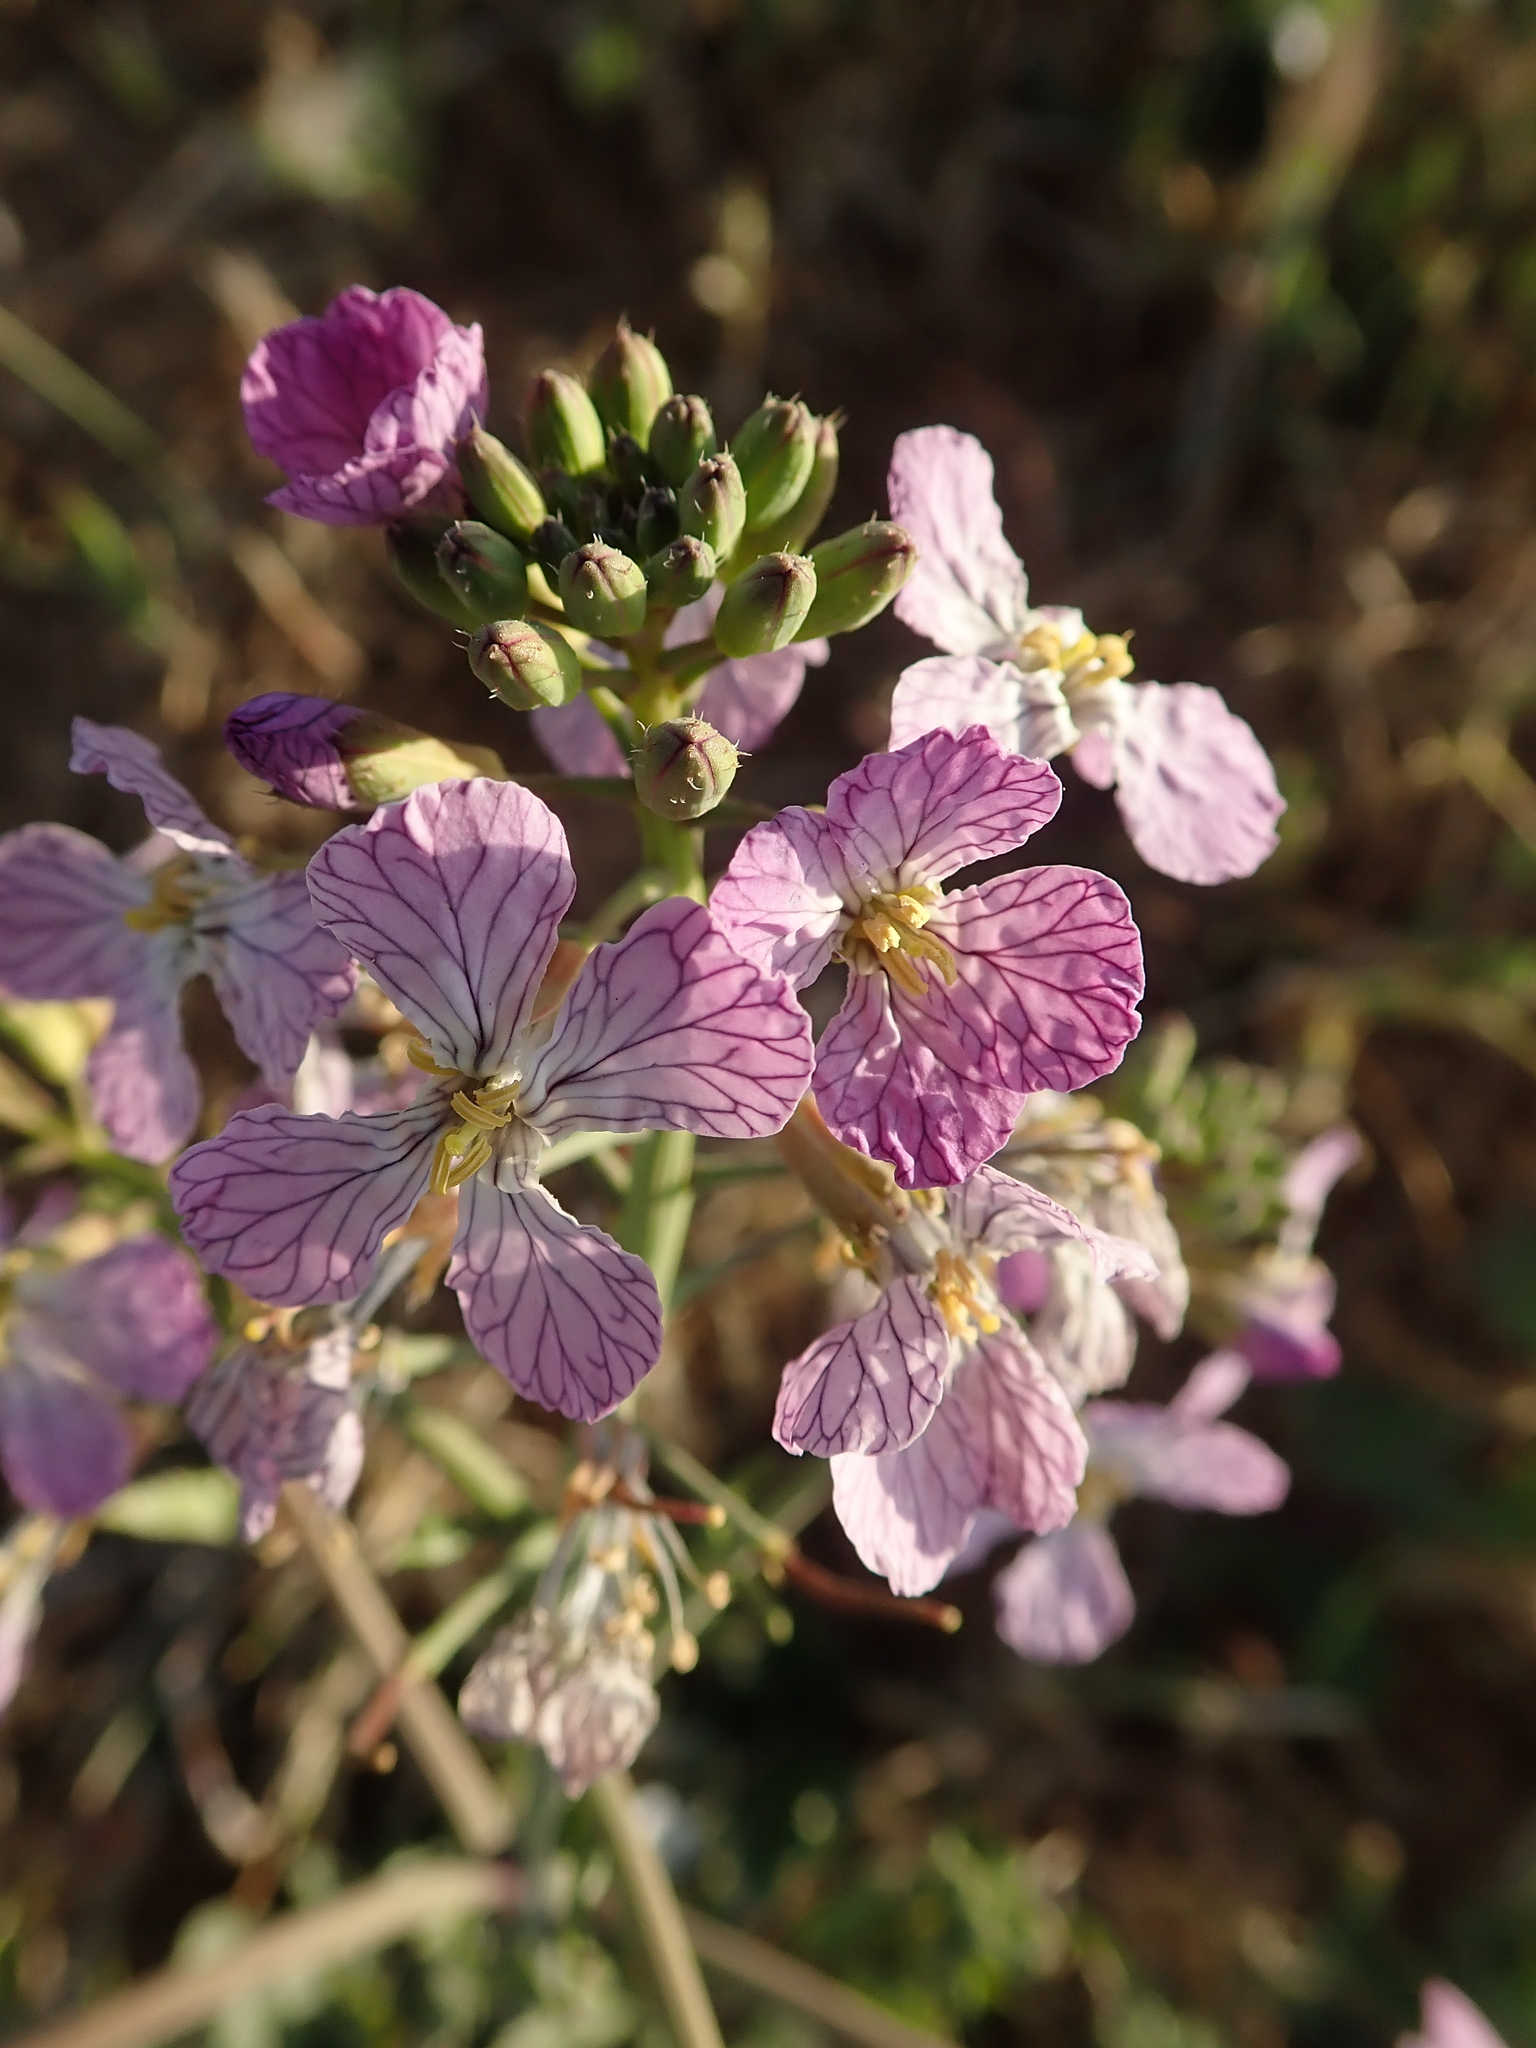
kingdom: Plantae
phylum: Tracheophyta
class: Magnoliopsida
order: Brassicales
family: Brassicaceae
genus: Raphanus
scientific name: Raphanus sativus
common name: Cultivated radish
